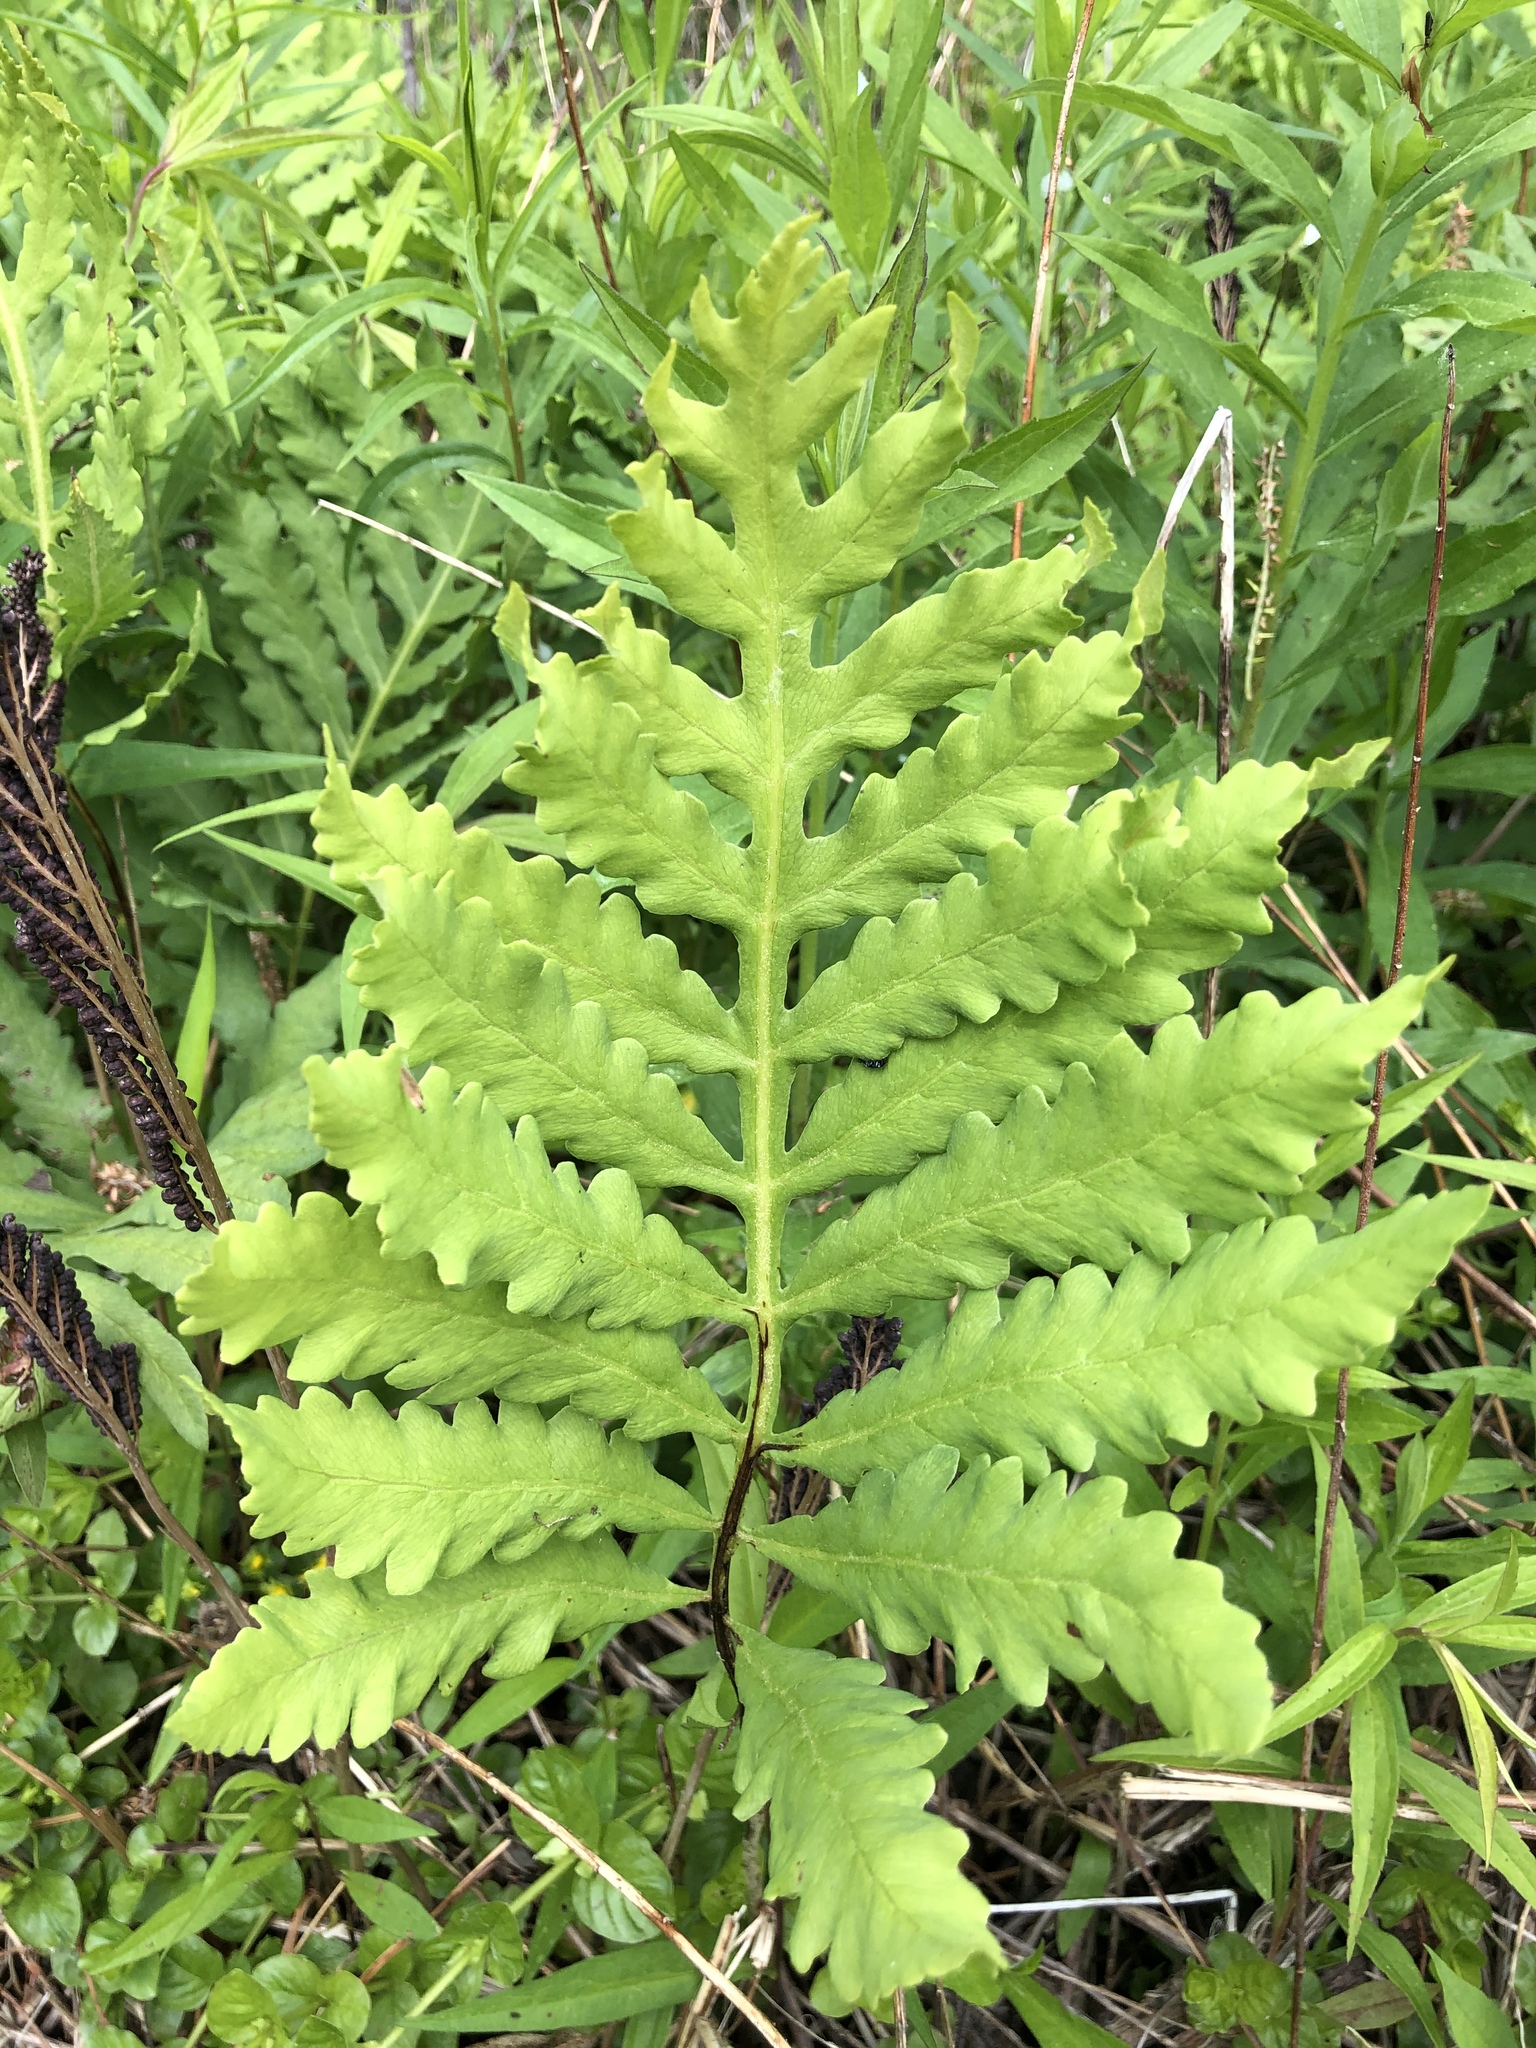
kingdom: Plantae
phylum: Tracheophyta
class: Polypodiopsida
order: Polypodiales
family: Onocleaceae
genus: Onoclea
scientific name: Onoclea sensibilis
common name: Sensitive fern
